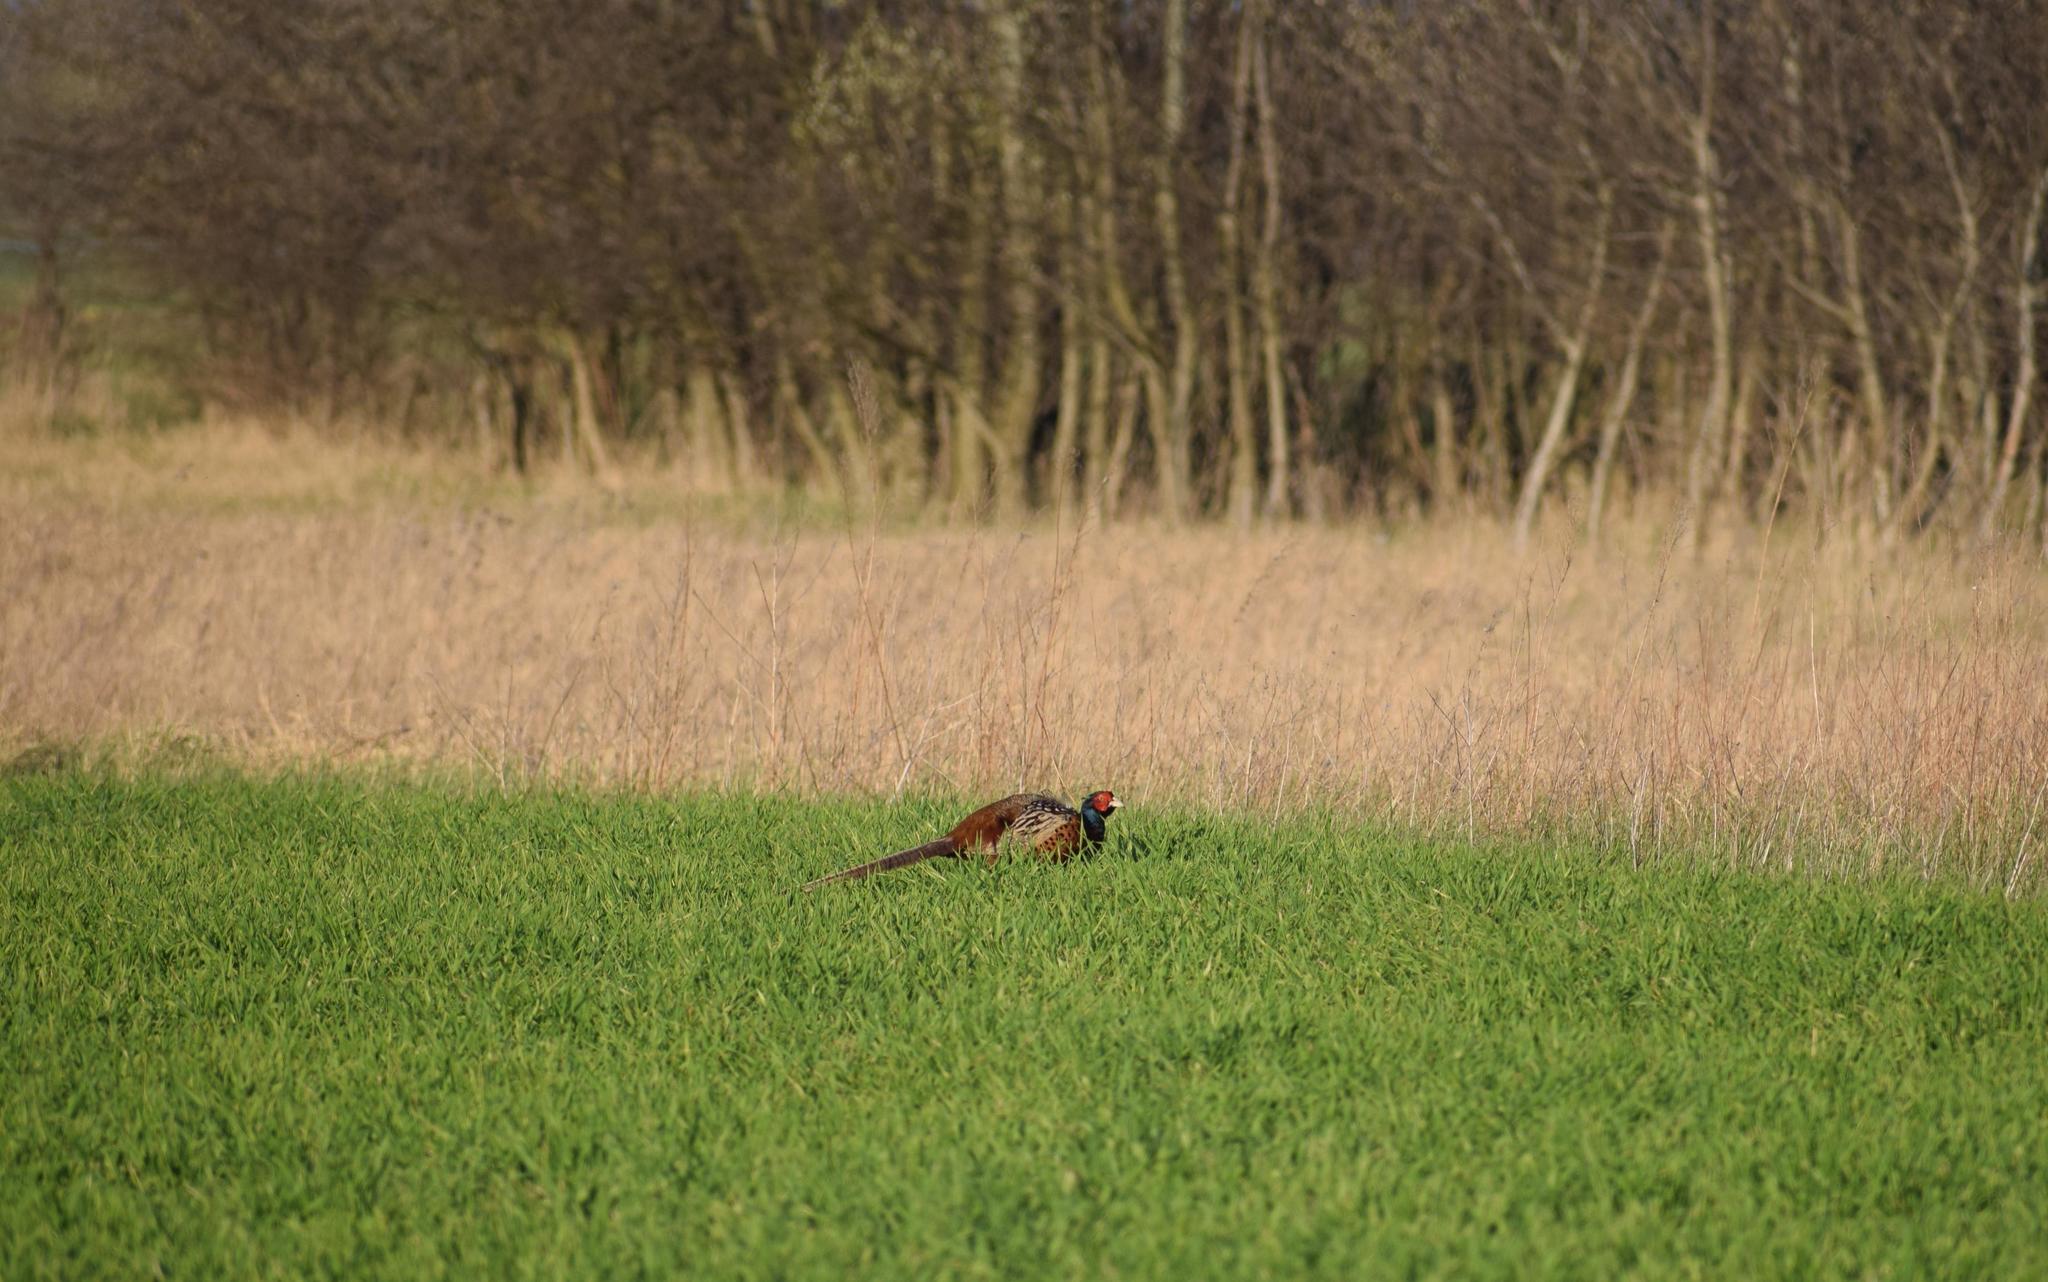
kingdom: Animalia
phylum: Chordata
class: Aves
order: Galliformes
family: Phasianidae
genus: Phasianus
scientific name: Phasianus colchicus
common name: Common pheasant
